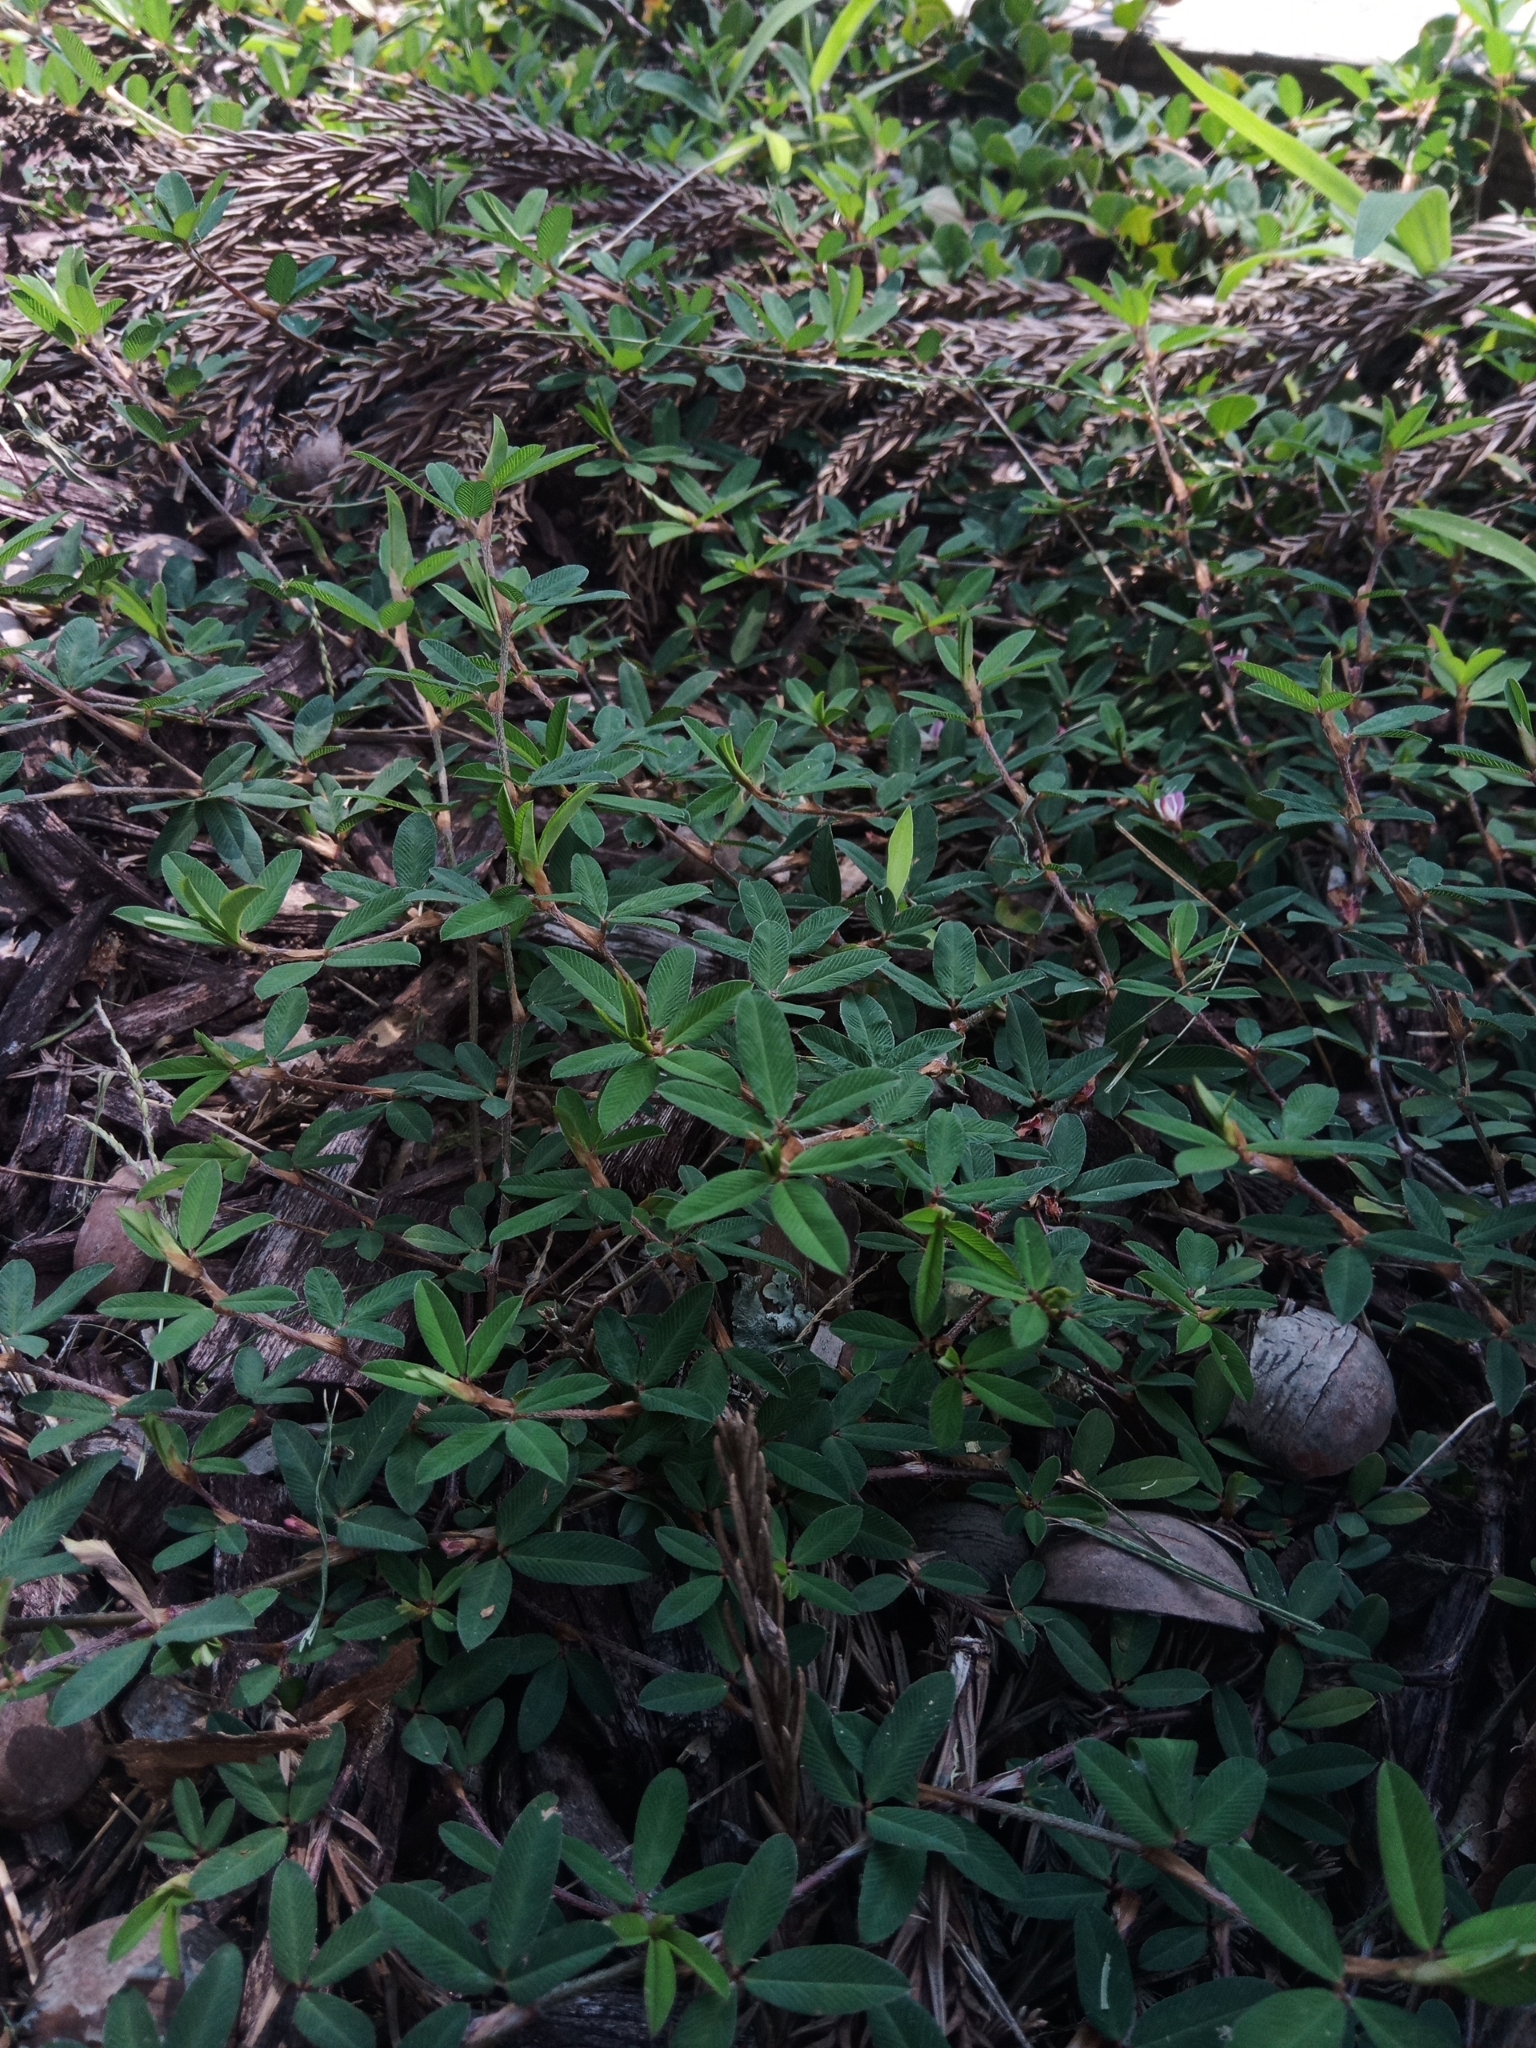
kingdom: Plantae
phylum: Tracheophyta
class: Magnoliopsida
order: Fabales
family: Fabaceae
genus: Kummerowia
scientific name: Kummerowia striata
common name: Japanese clover
